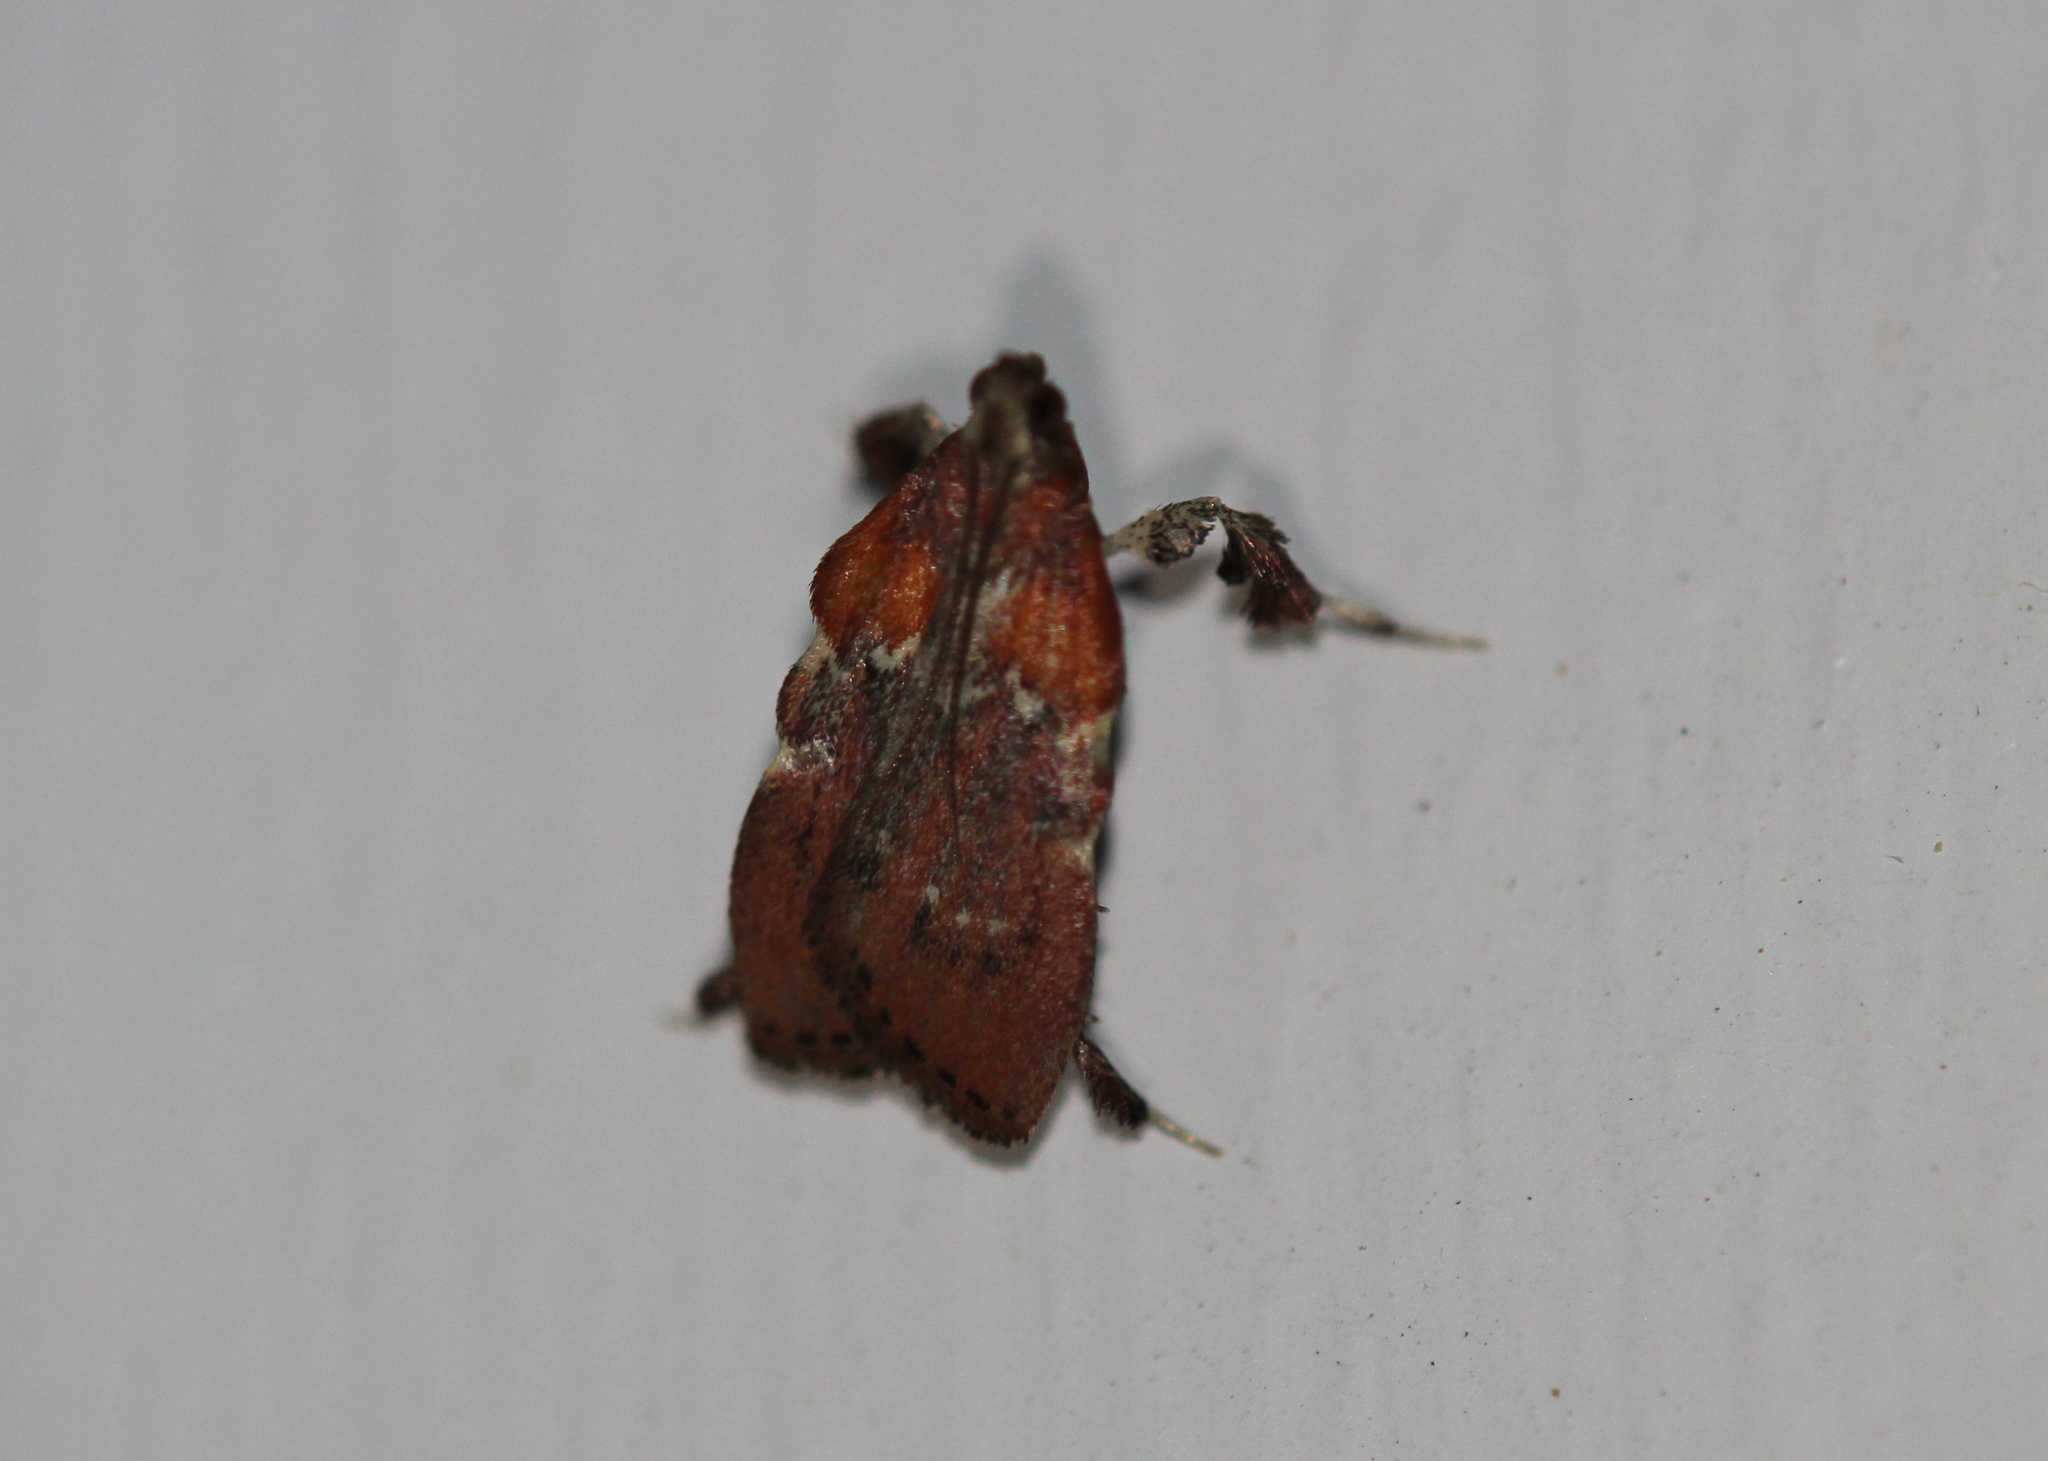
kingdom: Animalia
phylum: Arthropoda
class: Insecta
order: Lepidoptera
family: Pyralidae
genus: Galasa
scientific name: Galasa nigrinodis
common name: Boxwood leaftier moth
